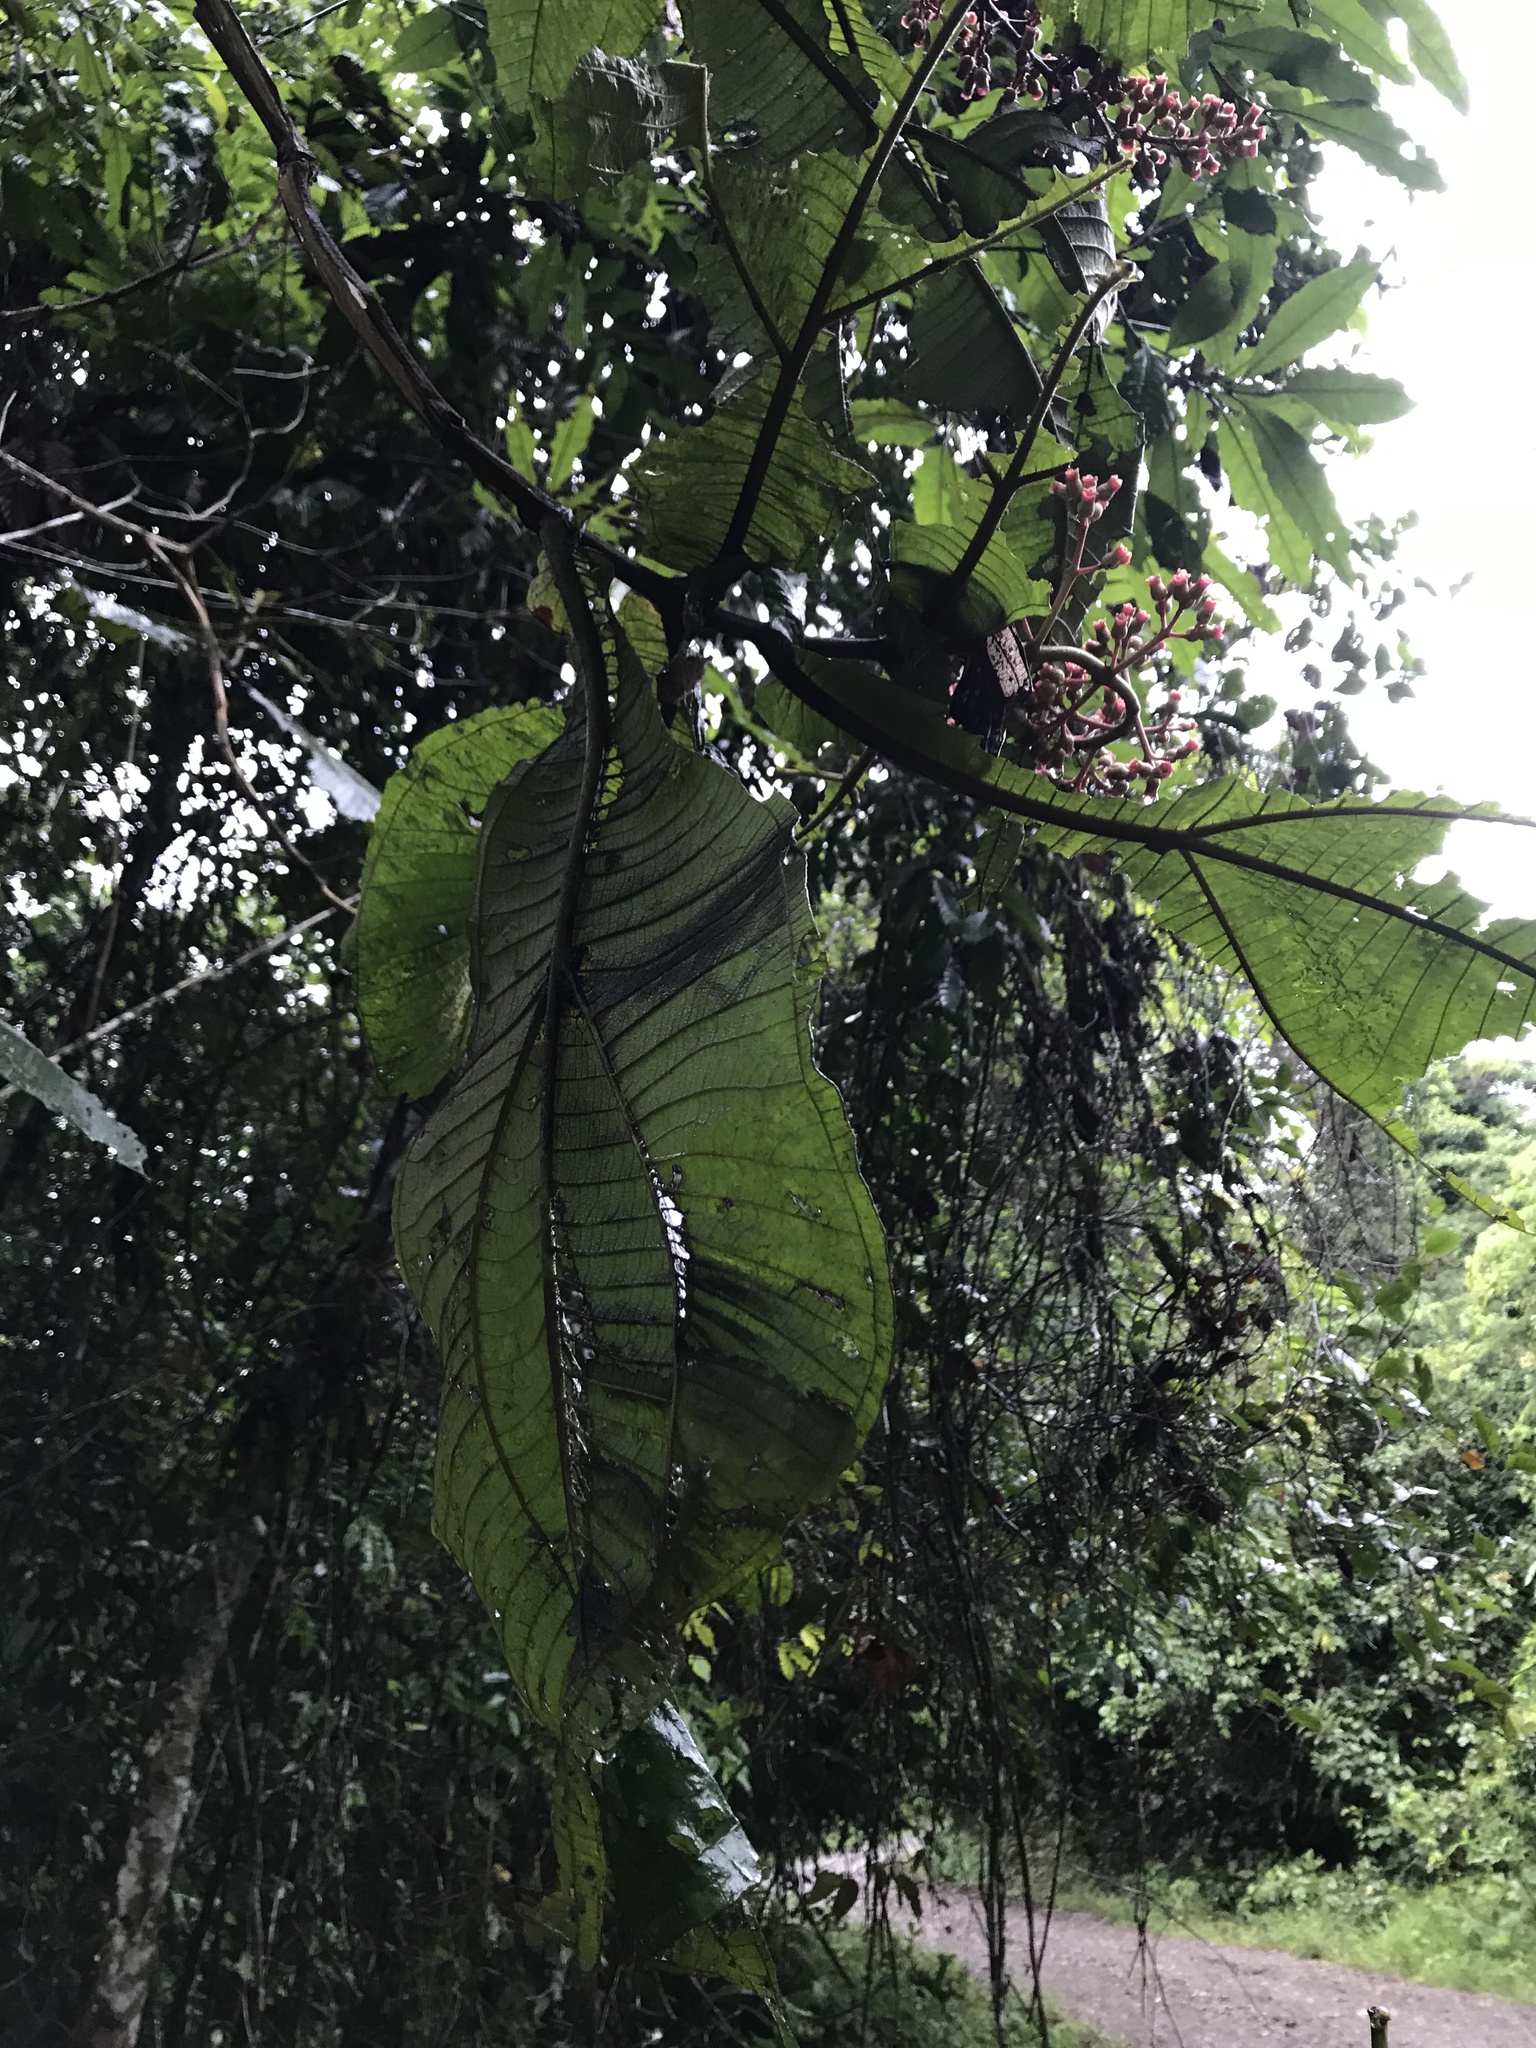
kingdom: Plantae
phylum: Tracheophyta
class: Magnoliopsida
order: Myrtales
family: Melastomataceae
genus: Miconia
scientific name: Miconia tomentosa
